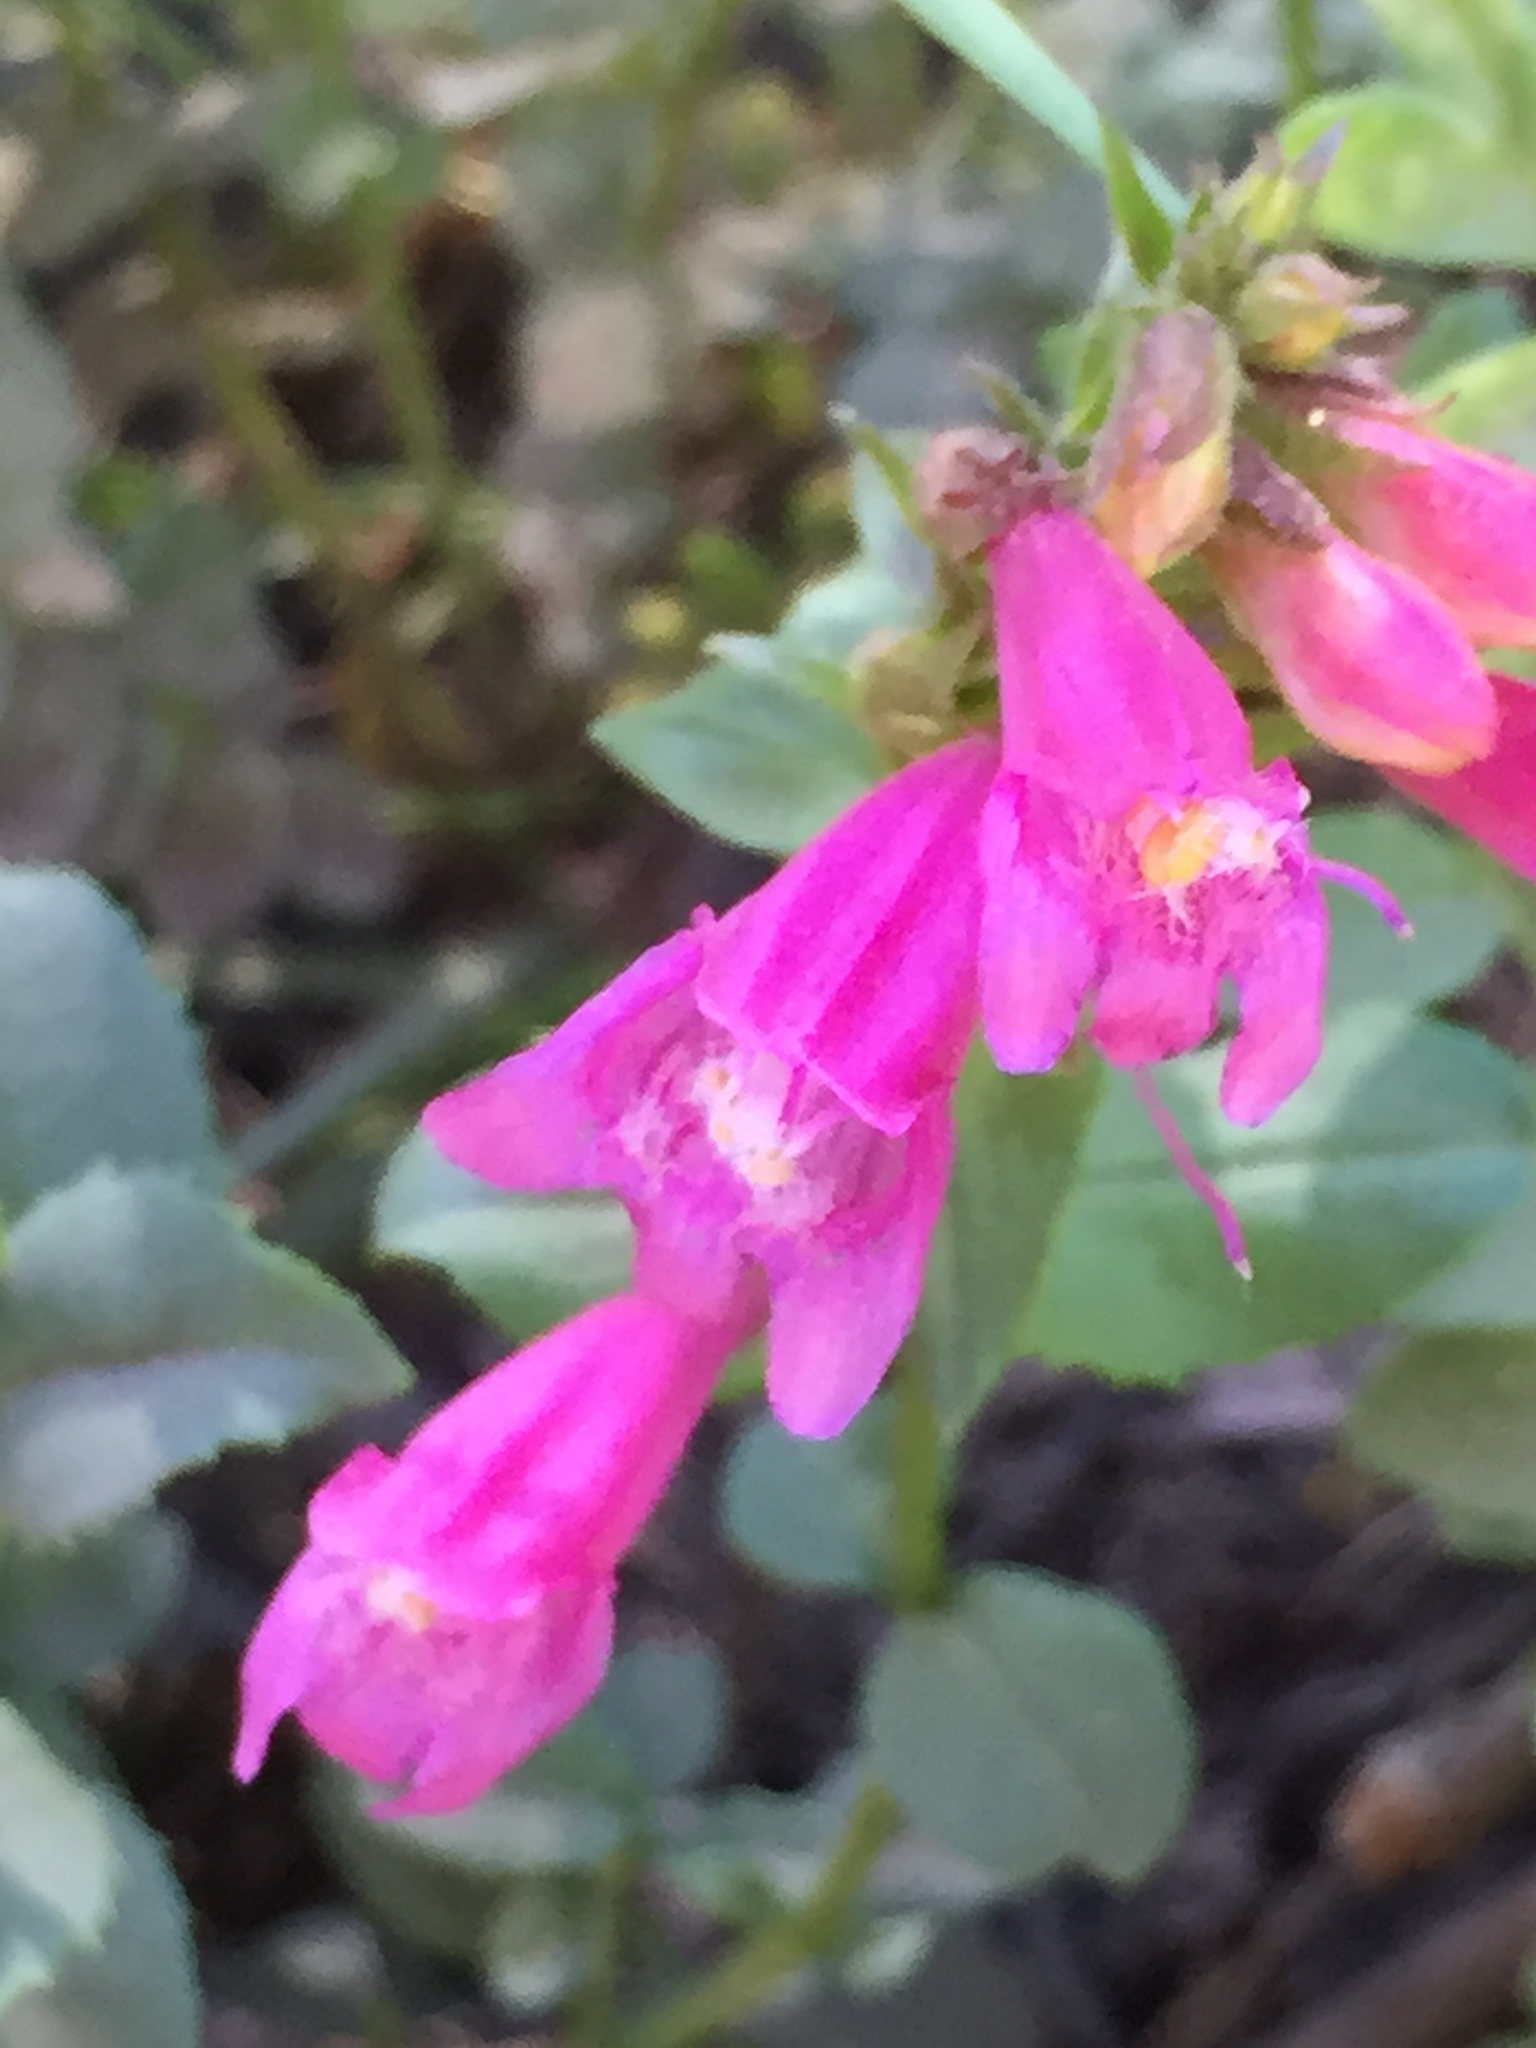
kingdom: Plantae
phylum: Tracheophyta
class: Magnoliopsida
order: Lamiales
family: Plantaginaceae
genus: Penstemon
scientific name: Penstemon newberryi
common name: Mountain-pride
